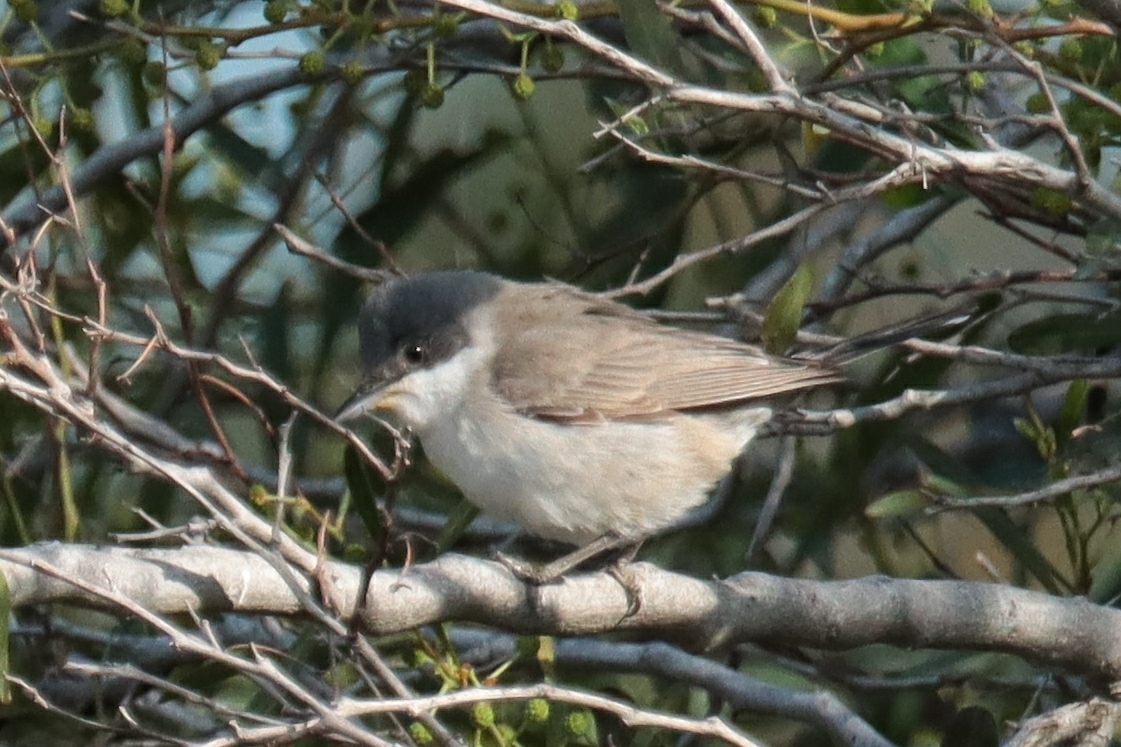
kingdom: Animalia
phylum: Chordata
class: Aves
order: Passeriformes
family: Sylviidae
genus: Sylvia
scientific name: Sylvia crassirostris
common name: Eastern orphean warbler
